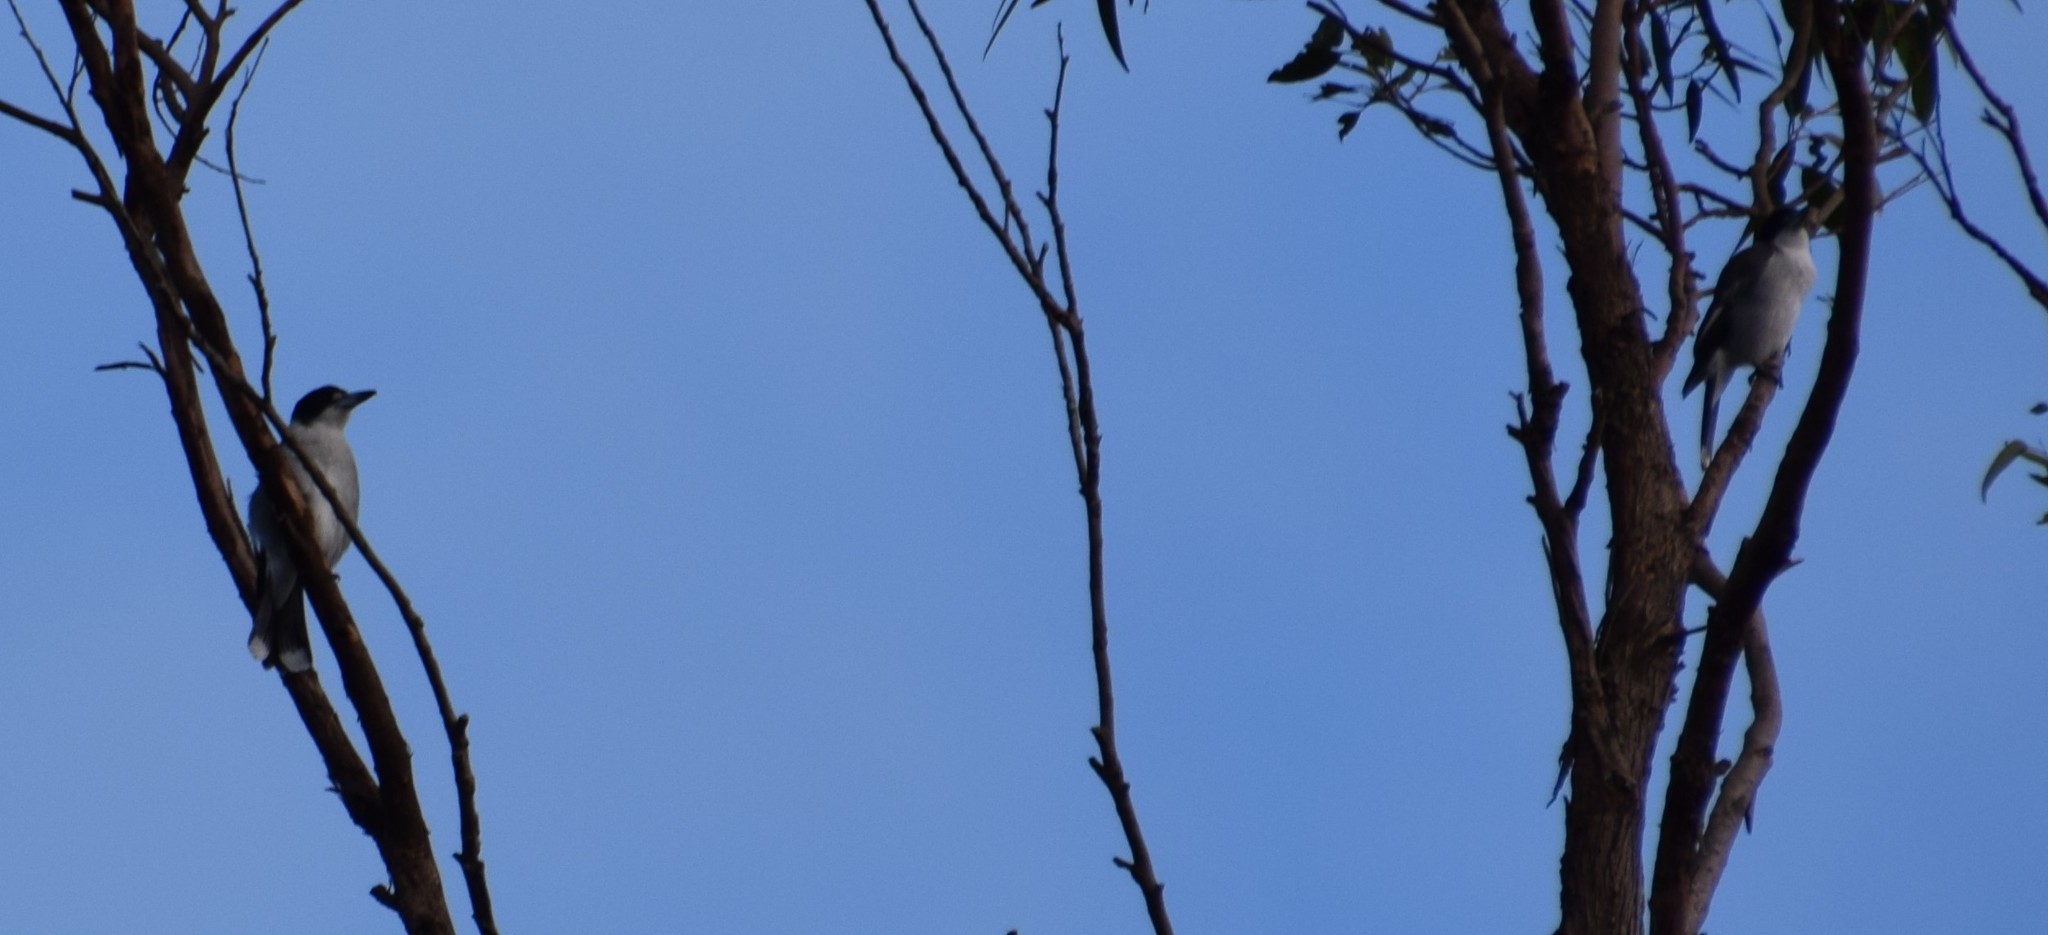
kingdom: Animalia
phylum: Chordata
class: Aves
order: Passeriformes
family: Cracticidae
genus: Cracticus
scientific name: Cracticus torquatus
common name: Grey butcherbird
